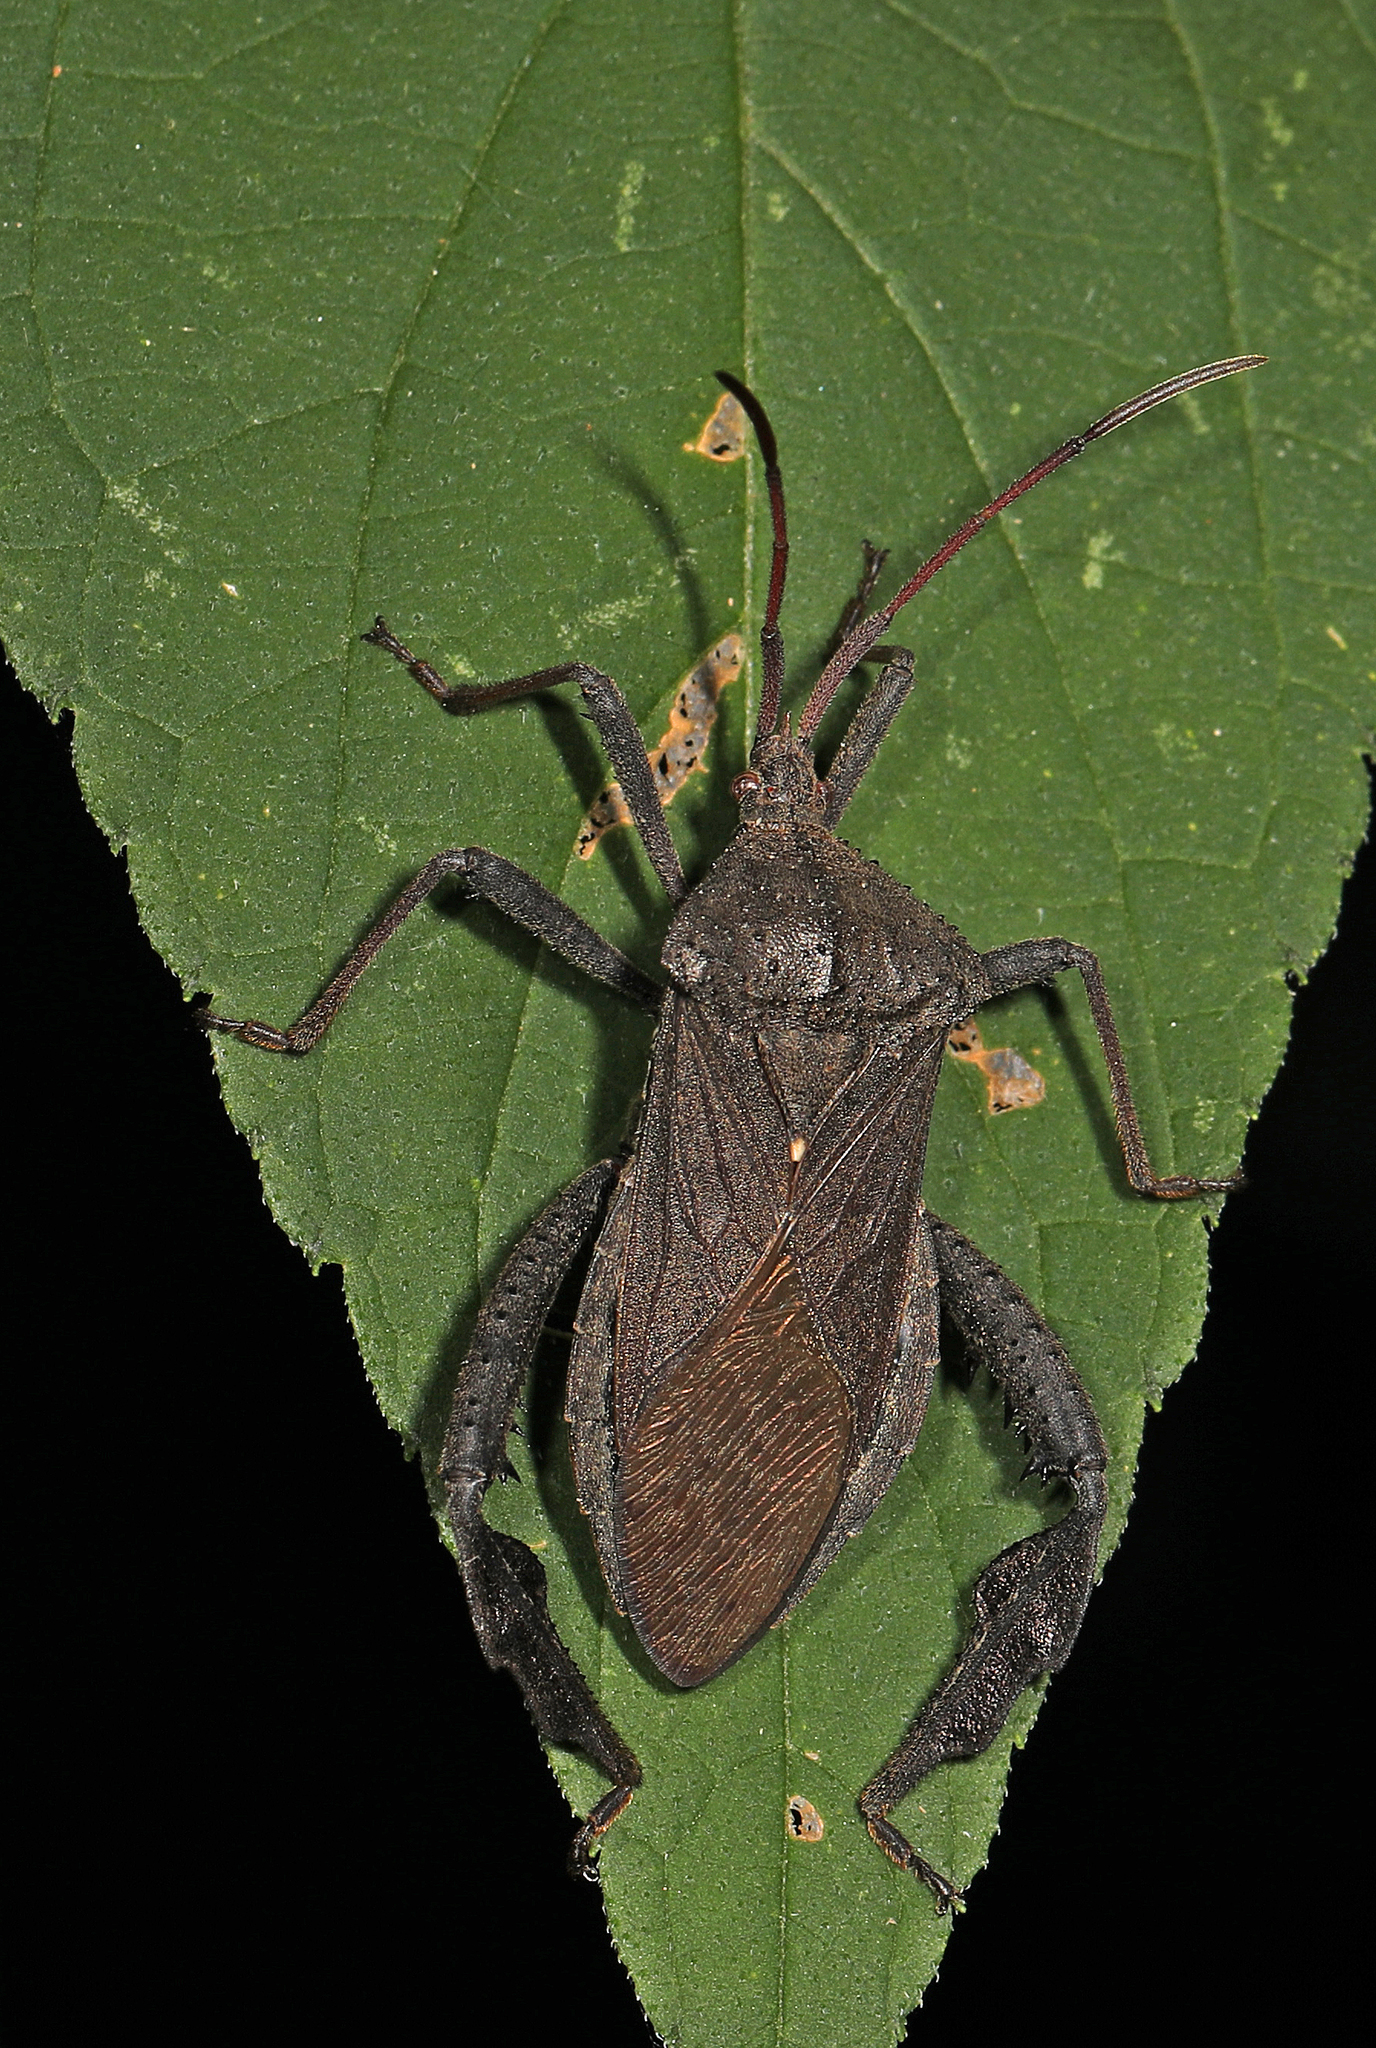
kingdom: Animalia
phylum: Arthropoda
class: Insecta
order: Hemiptera
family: Coreidae
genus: Acanthocephala
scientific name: Acanthocephala femorata
